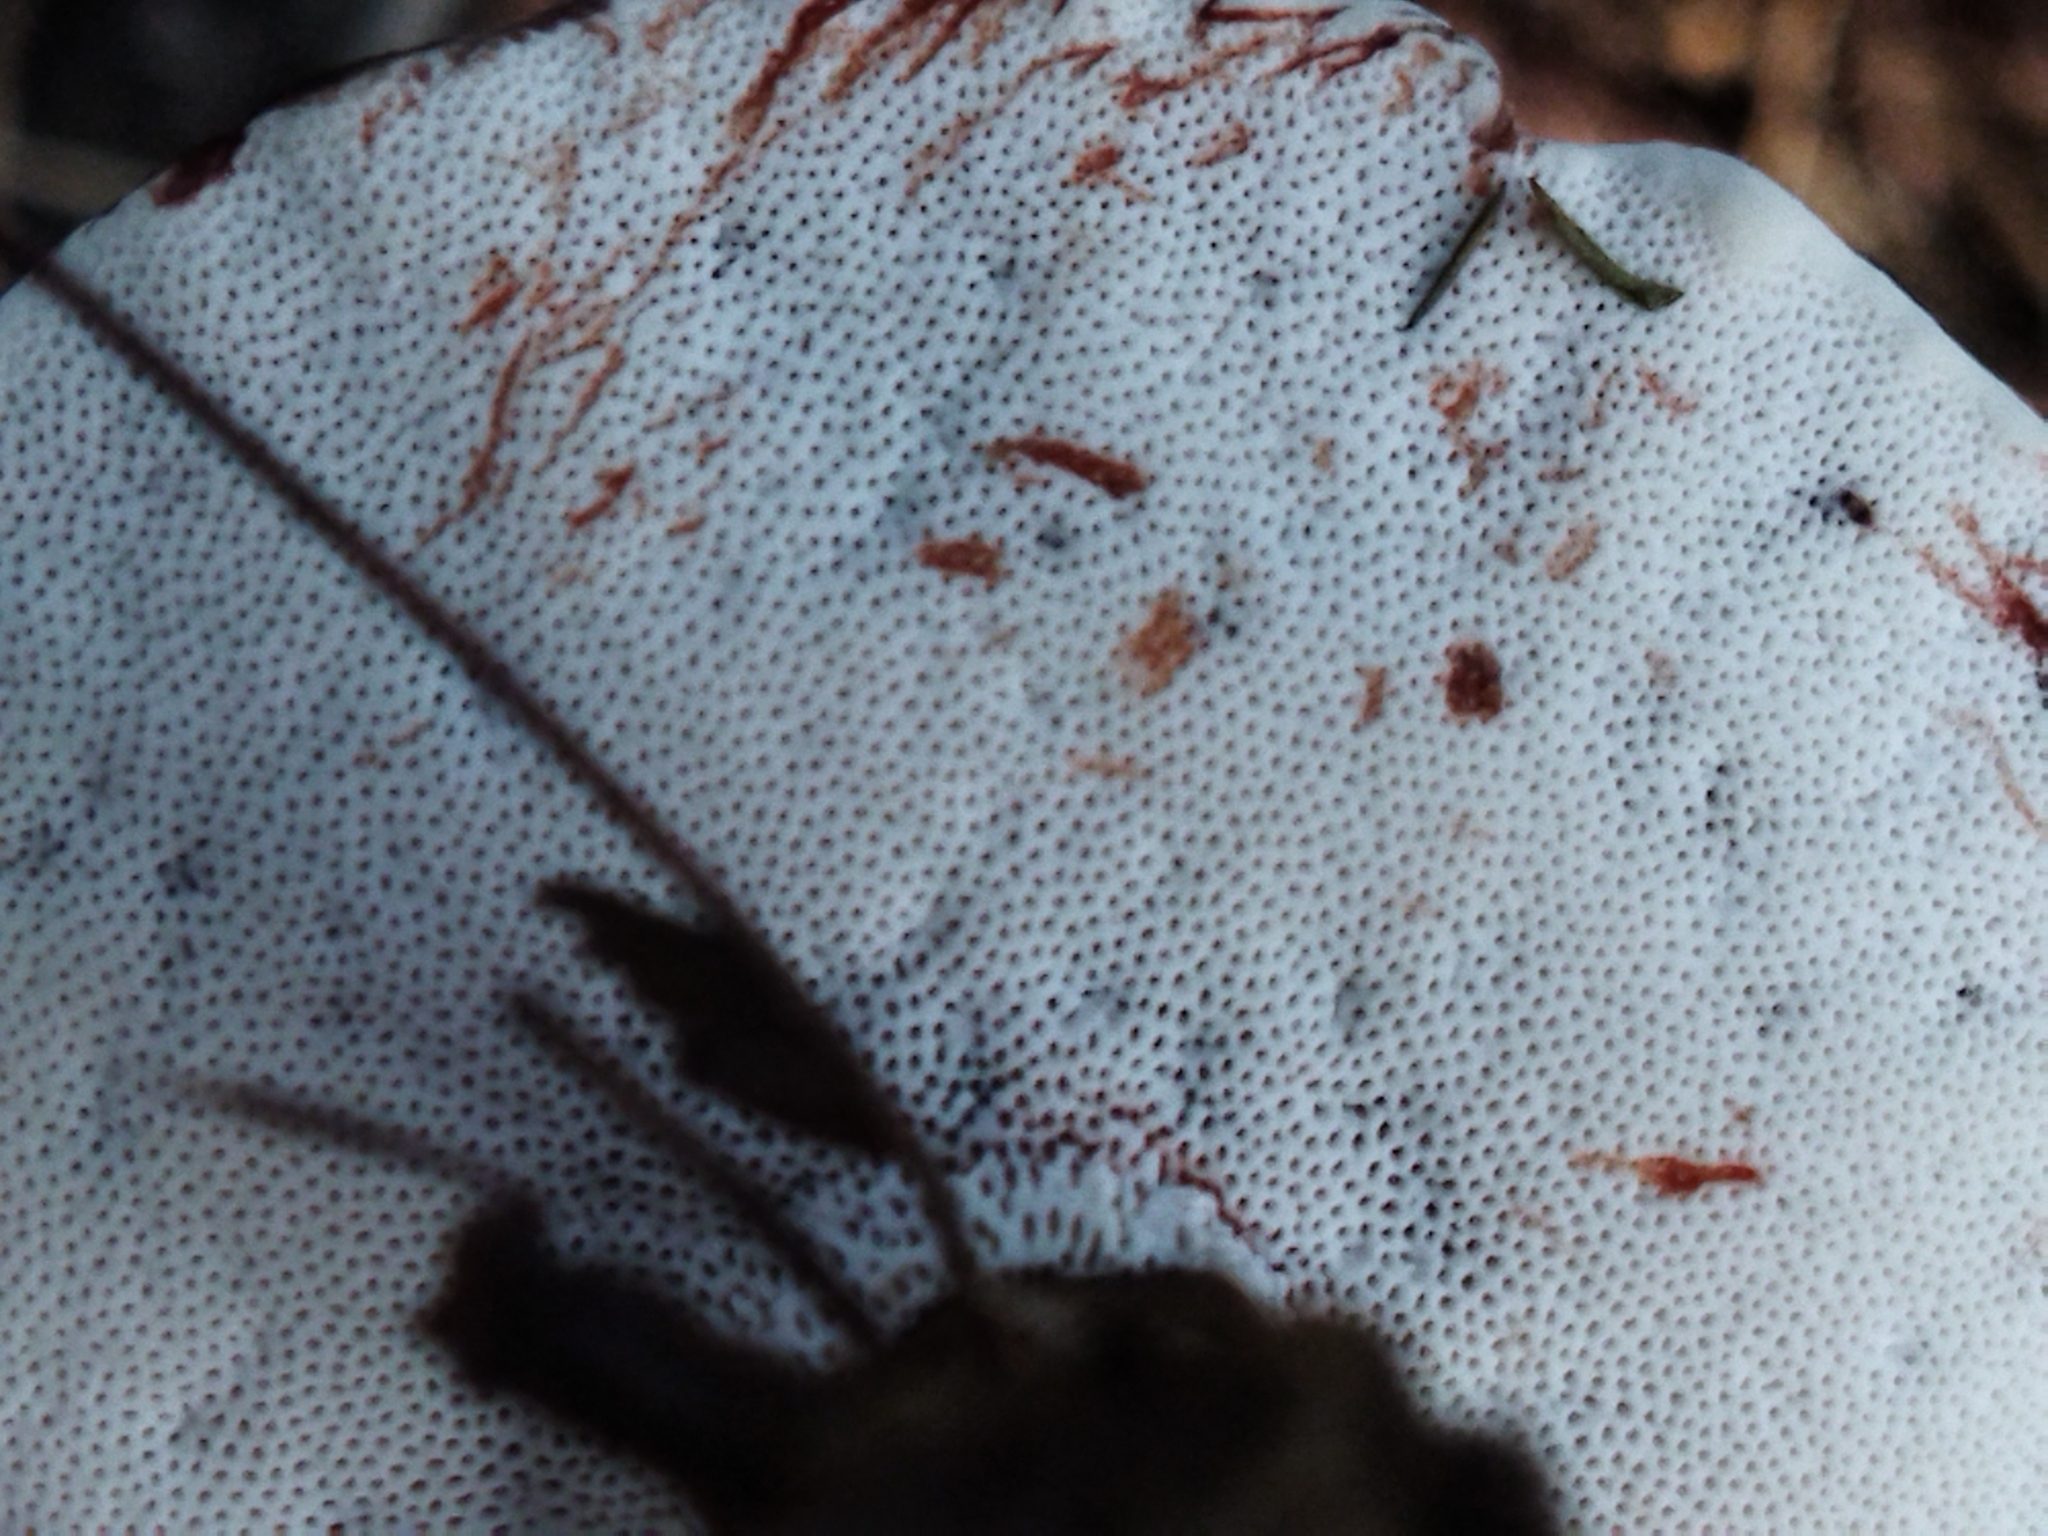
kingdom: Fungi
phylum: Basidiomycota
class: Agaricomycetes
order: Polyporales
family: Ganodermataceae
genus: Sanguinoderma
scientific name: Sanguinoderma rude
